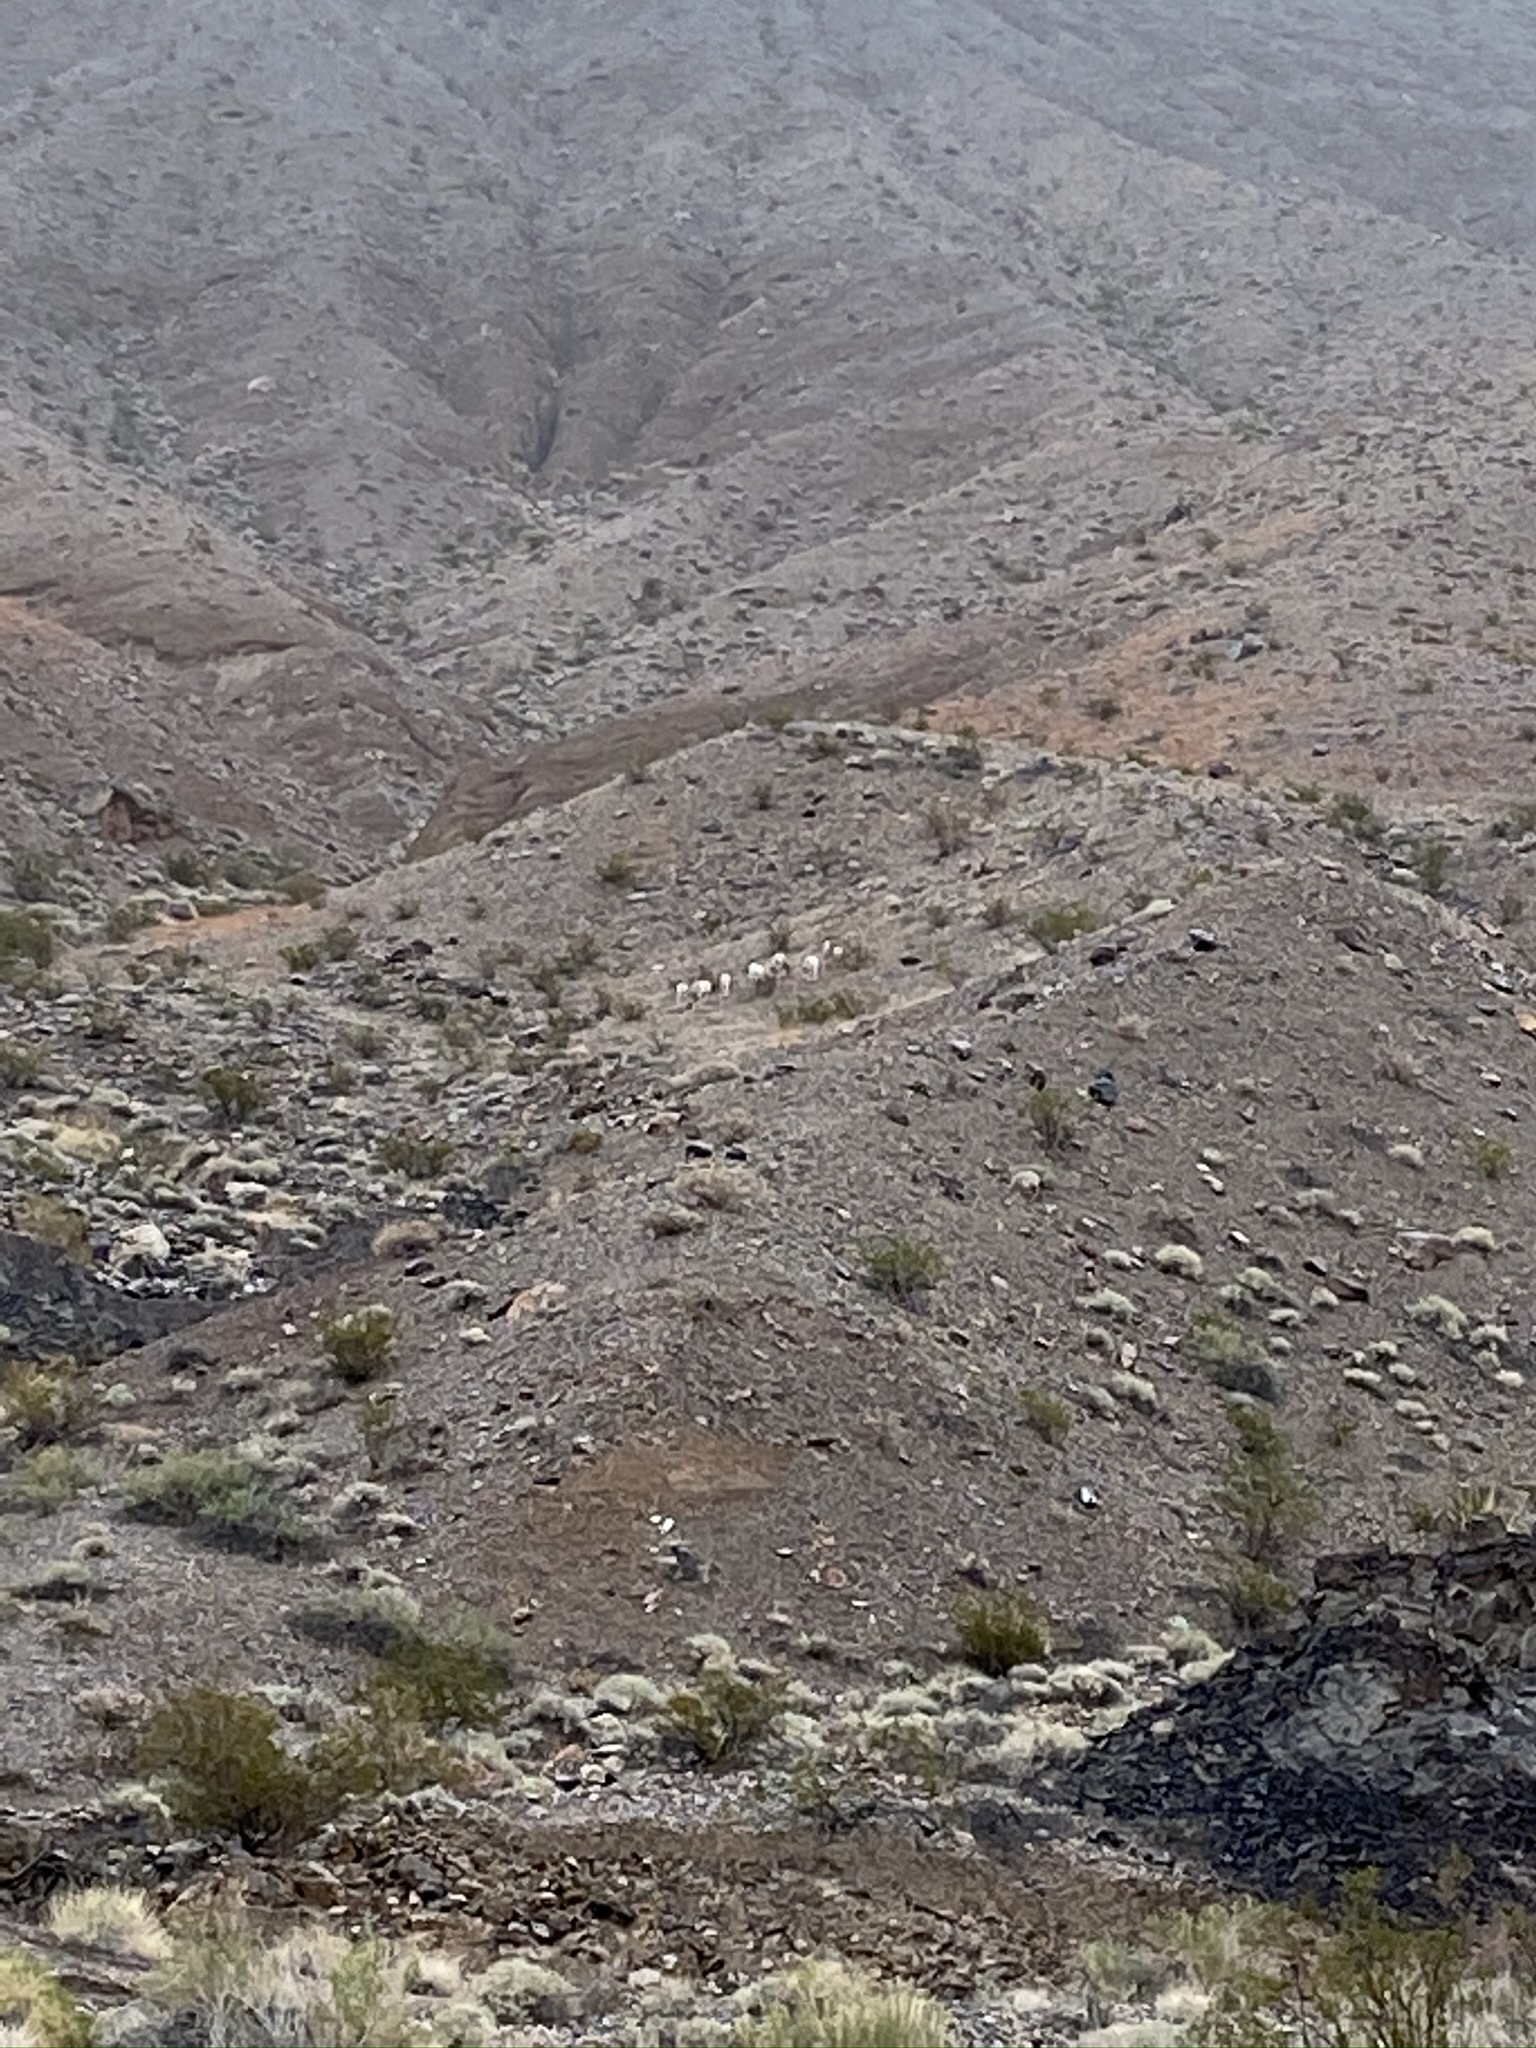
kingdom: Animalia
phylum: Chordata
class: Mammalia
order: Artiodactyla
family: Bovidae
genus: Ovis
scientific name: Ovis canadensis
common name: Bighorn sheep
